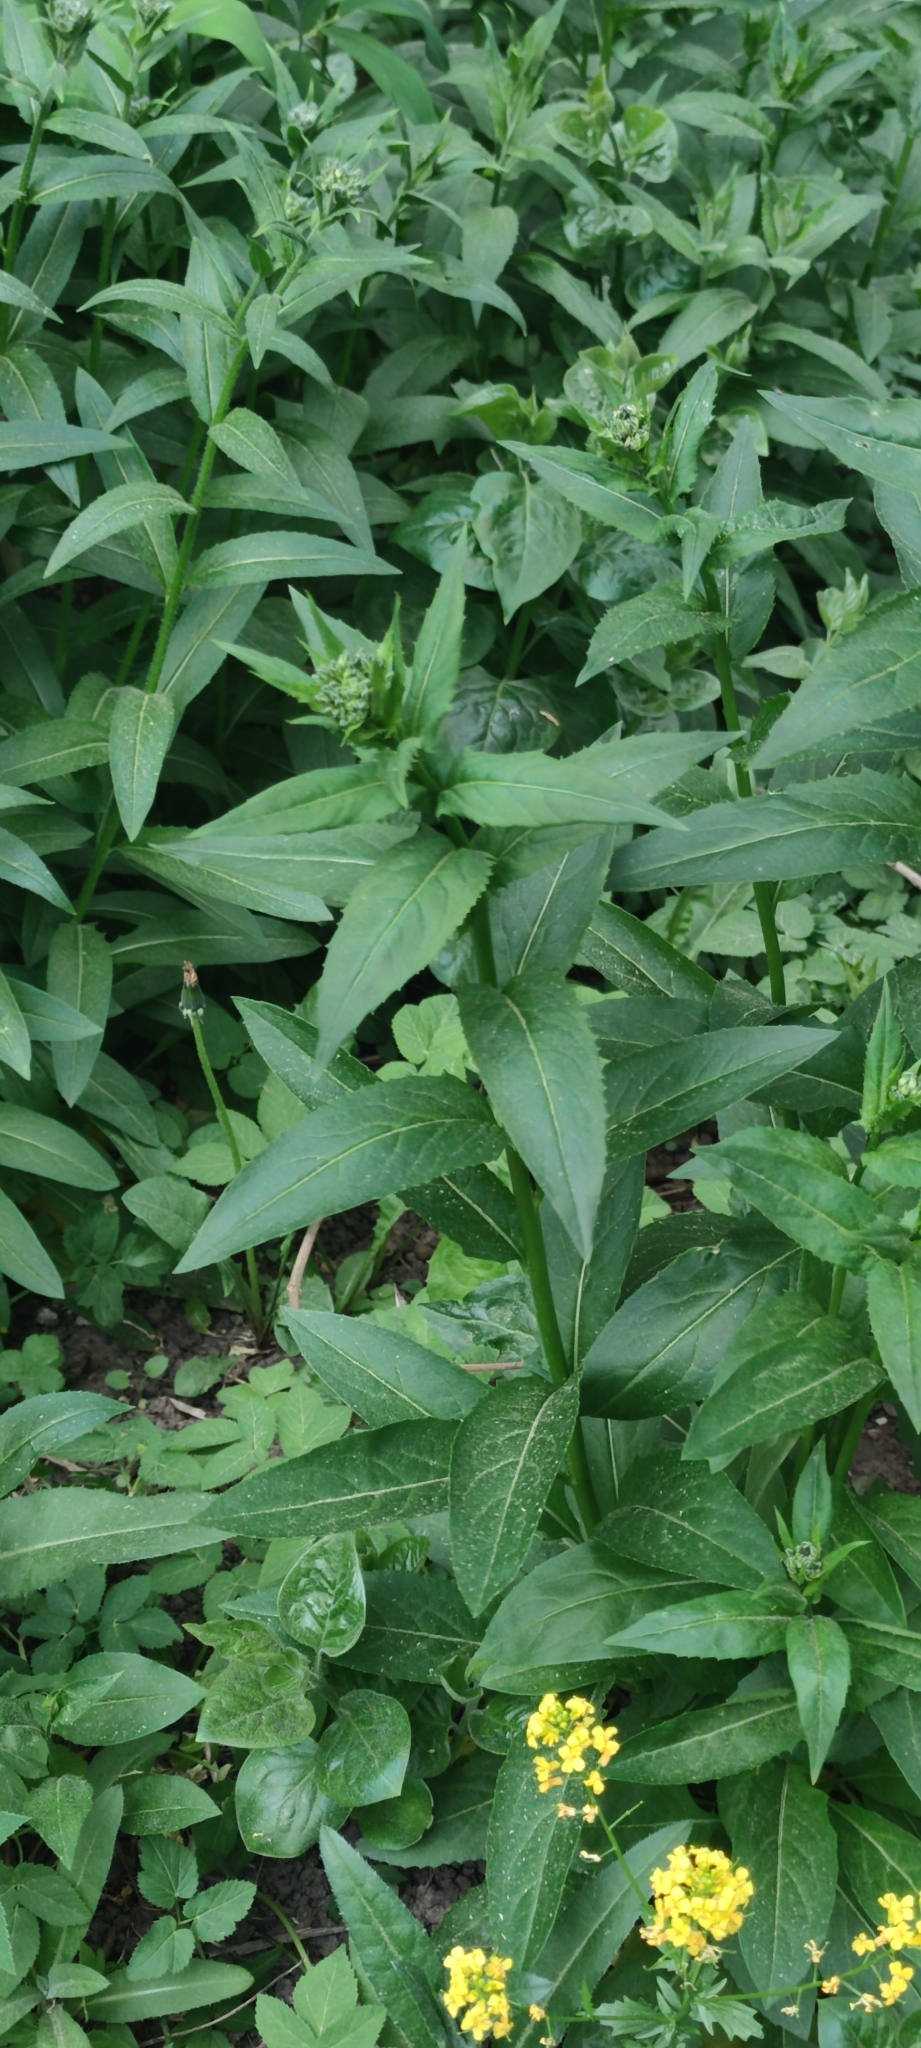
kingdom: Plantae
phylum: Tracheophyta
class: Magnoliopsida
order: Brassicales
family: Brassicaceae
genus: Hesperis
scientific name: Hesperis
